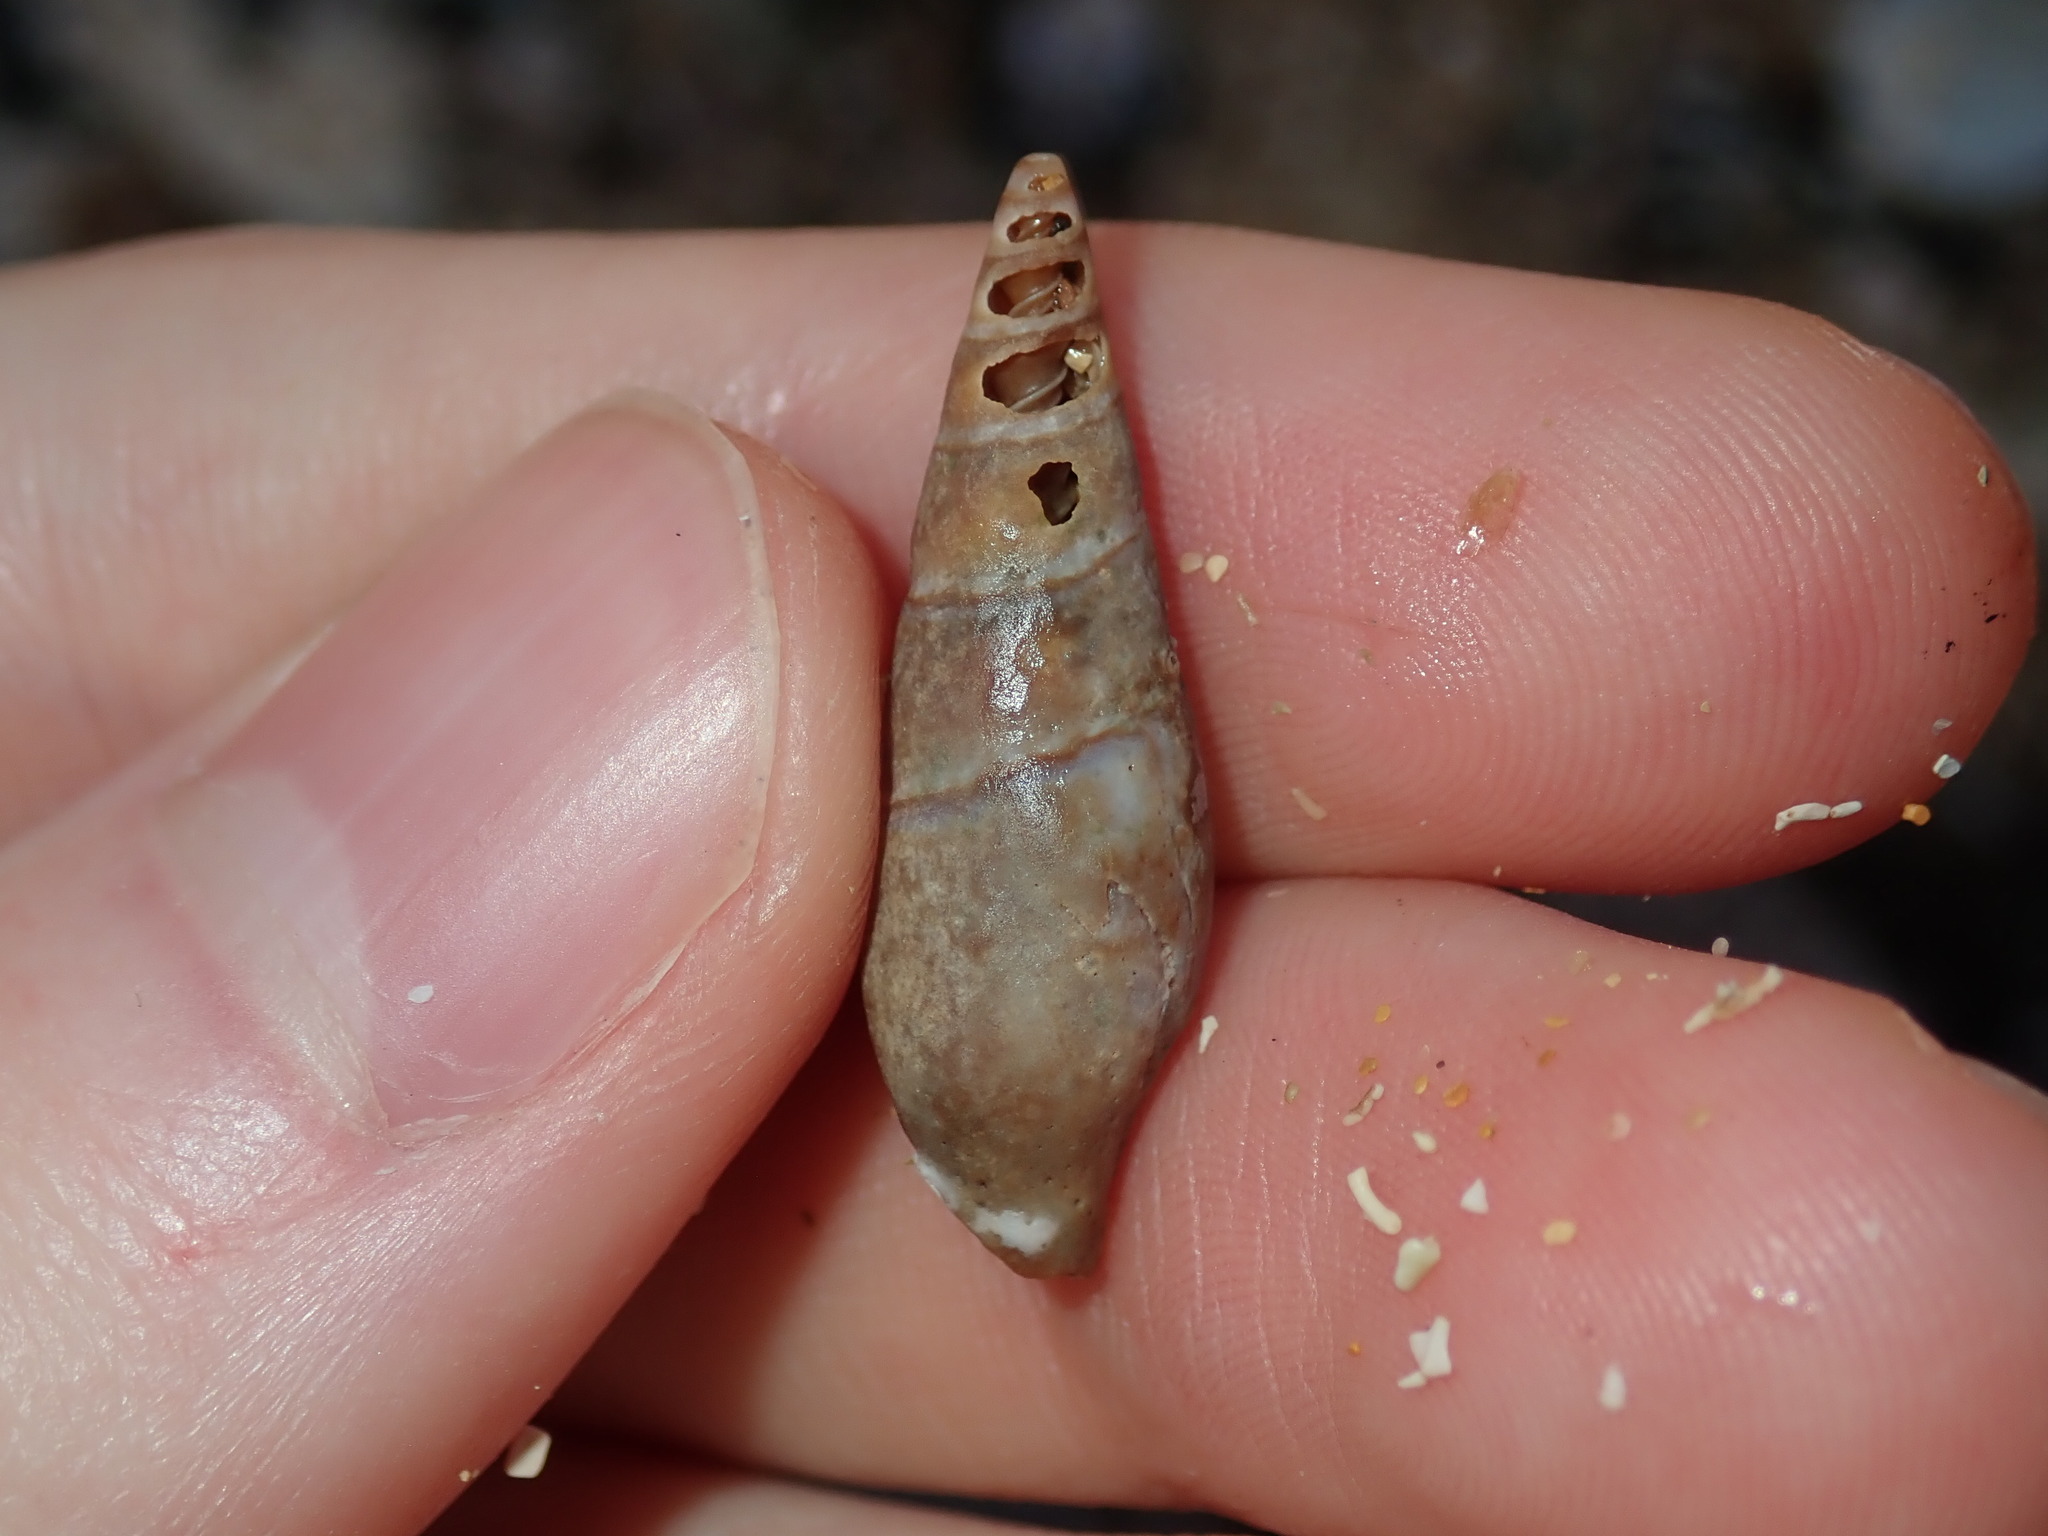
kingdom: Animalia
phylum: Mollusca
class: Gastropoda
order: Neogastropoda
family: Mitridae
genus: Isara
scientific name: Isara cookii
